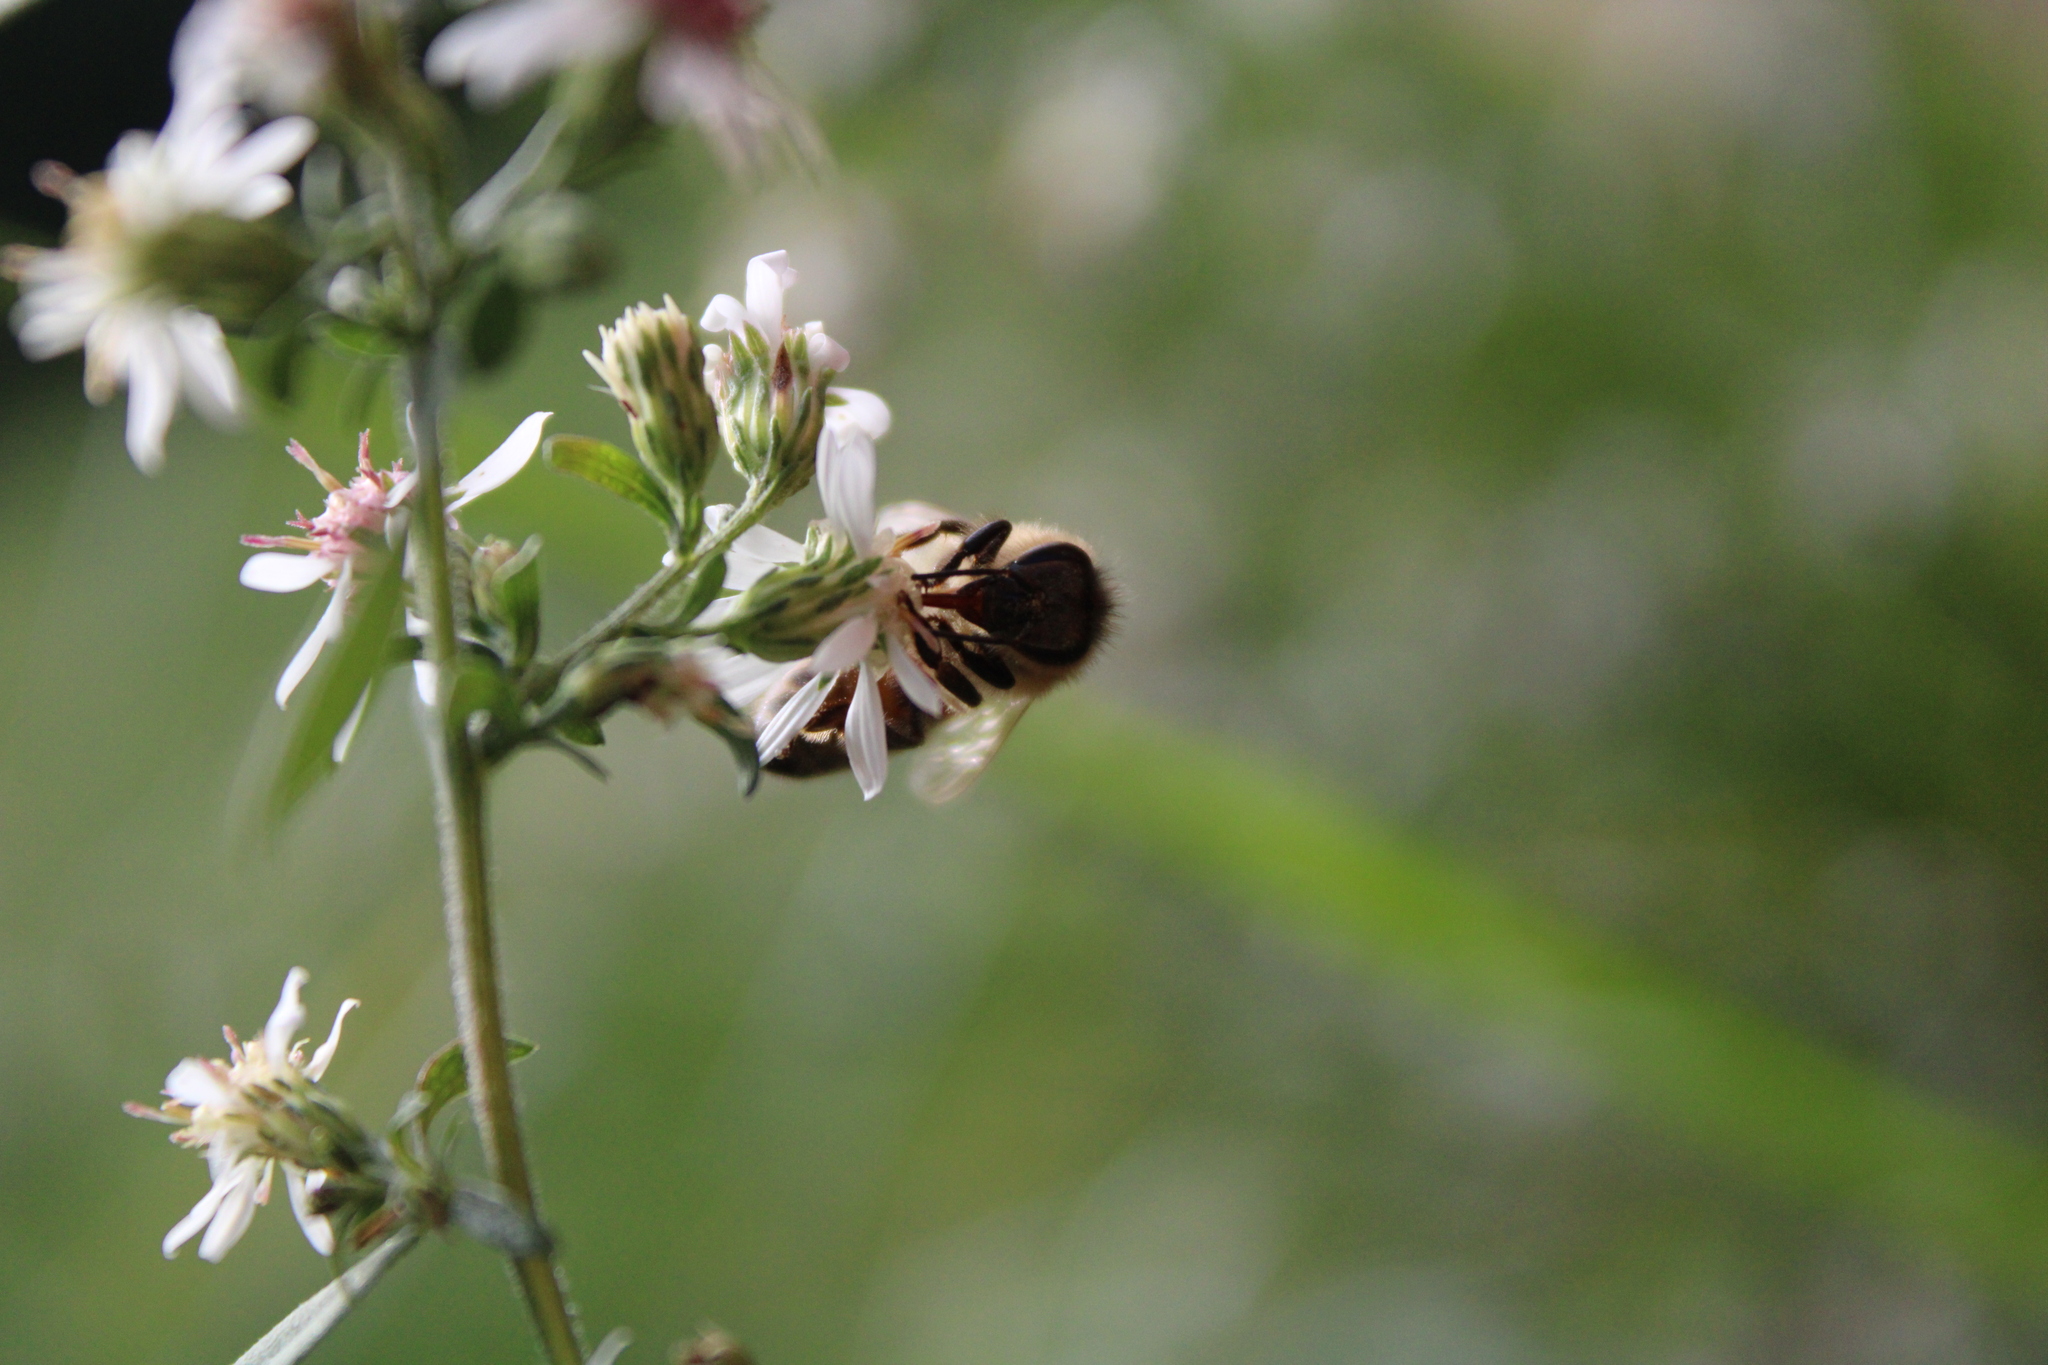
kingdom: Animalia
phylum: Arthropoda
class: Insecta
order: Hymenoptera
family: Apidae
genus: Apis
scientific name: Apis mellifera
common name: Honey bee
